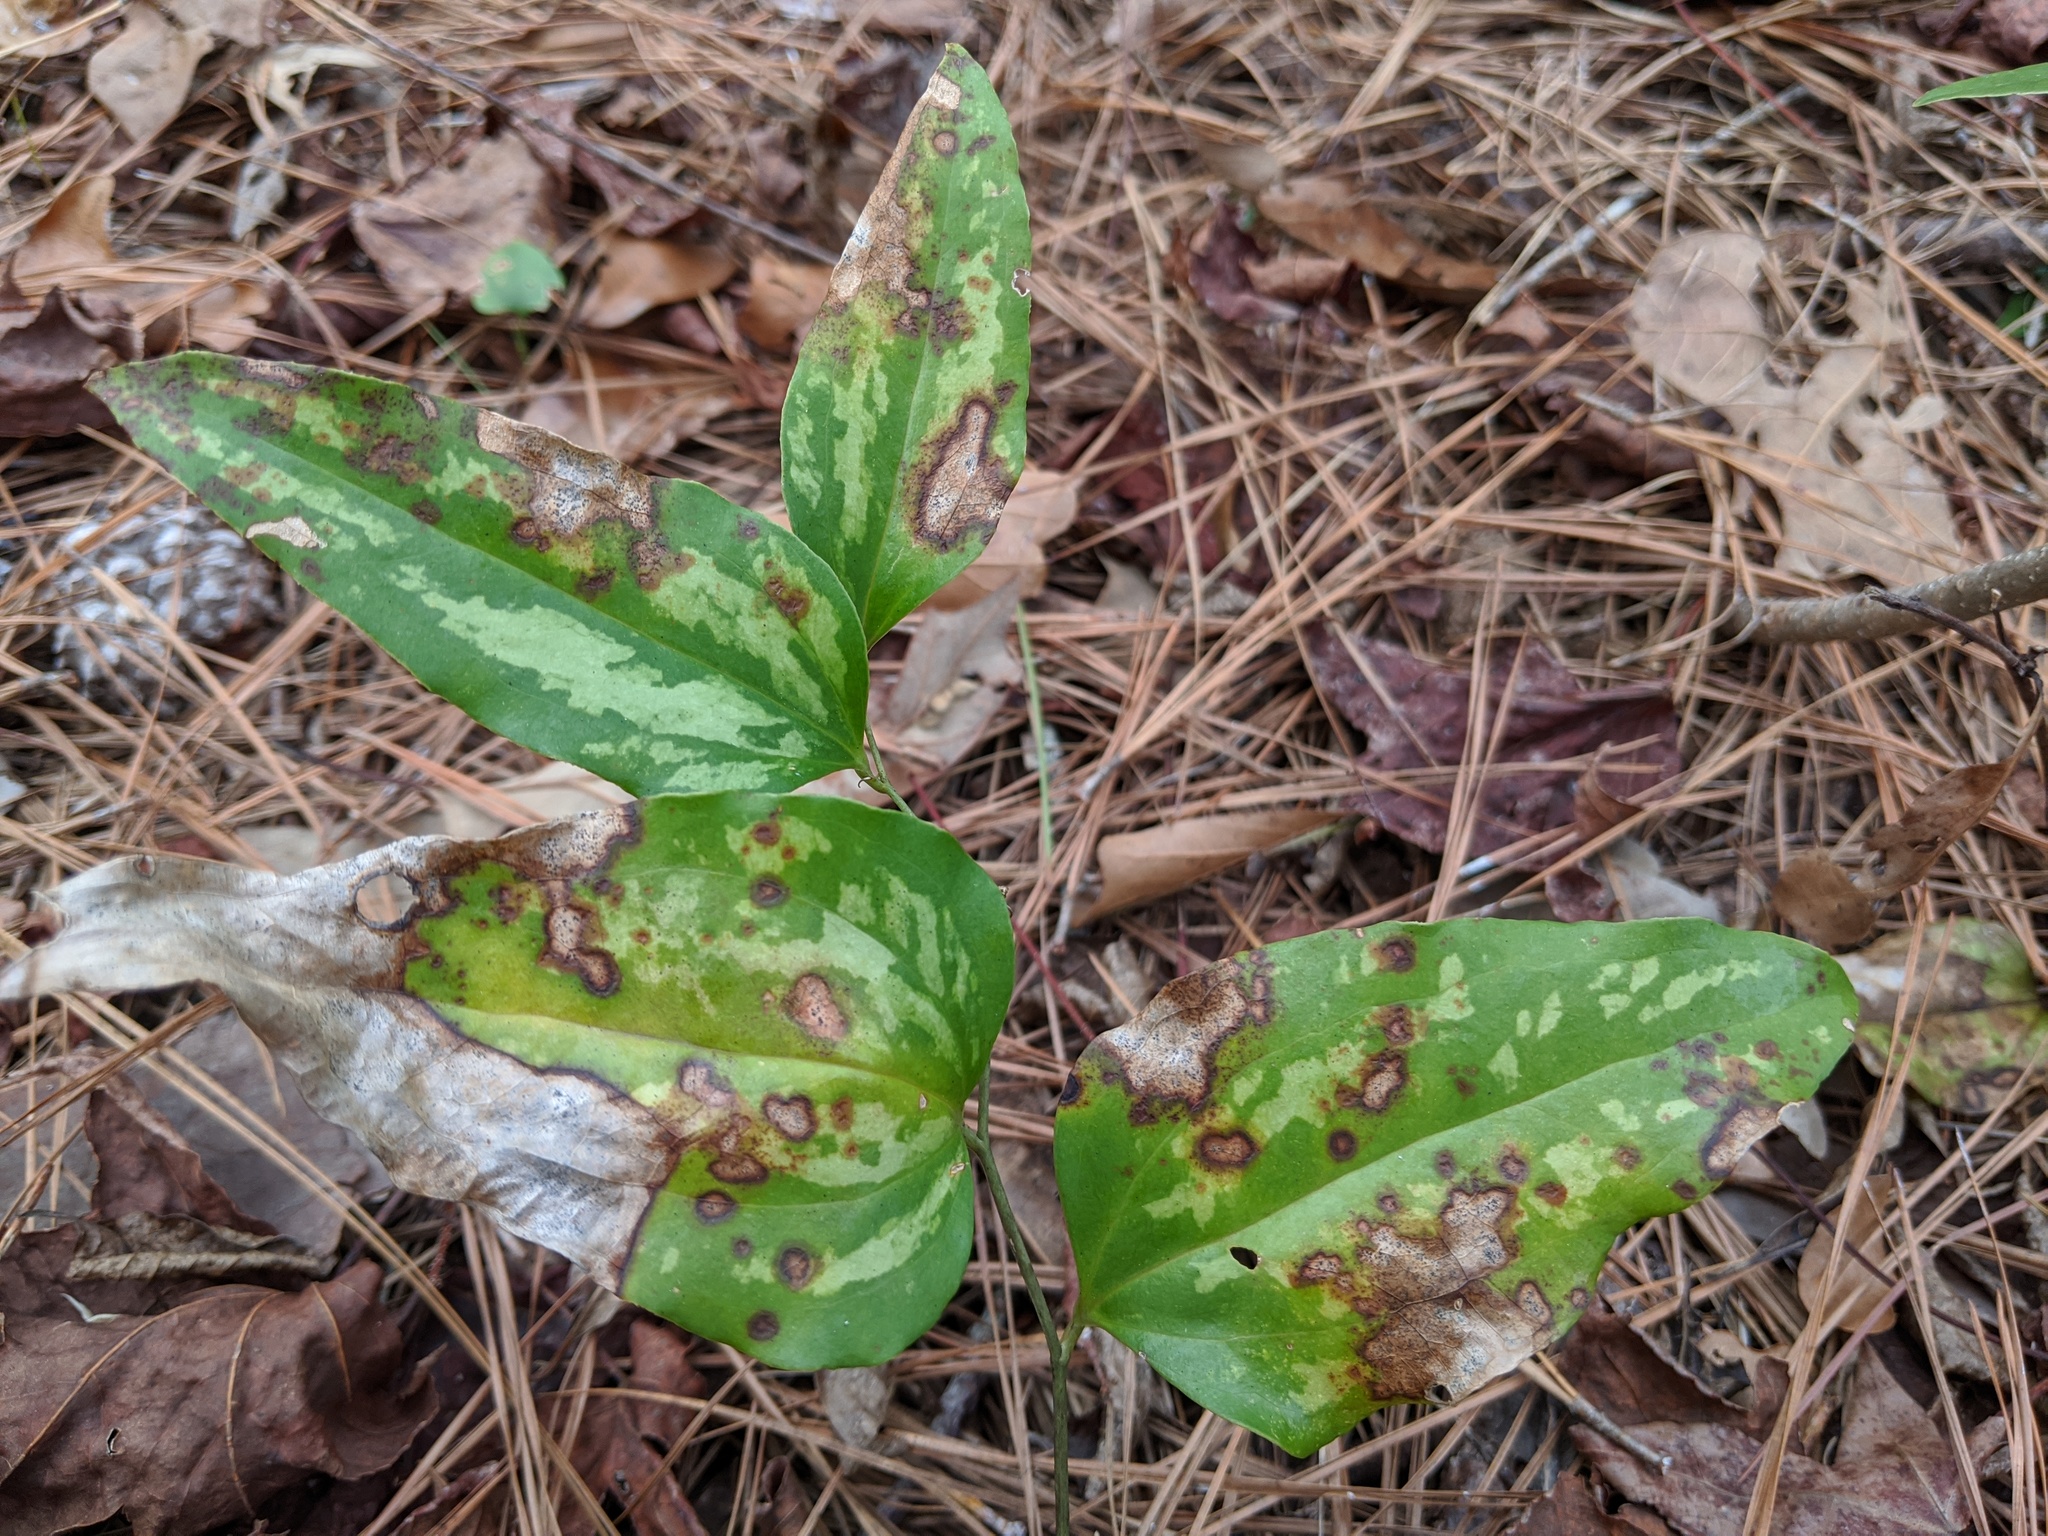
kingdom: Plantae
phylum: Tracheophyta
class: Liliopsida
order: Liliales
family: Smilacaceae
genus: Smilax
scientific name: Smilax maritima
